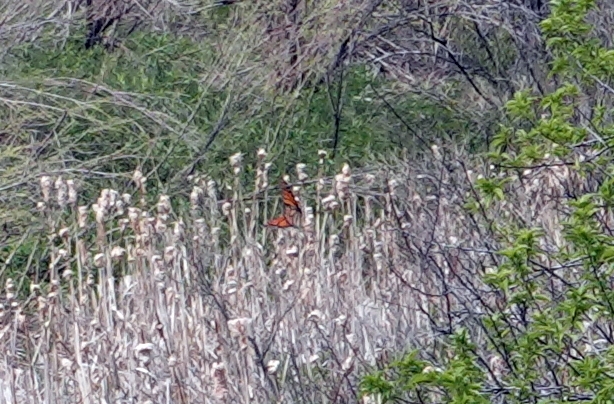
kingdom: Animalia
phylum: Arthropoda
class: Insecta
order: Lepidoptera
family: Nymphalidae
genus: Danaus
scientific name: Danaus plexippus
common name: Monarch
